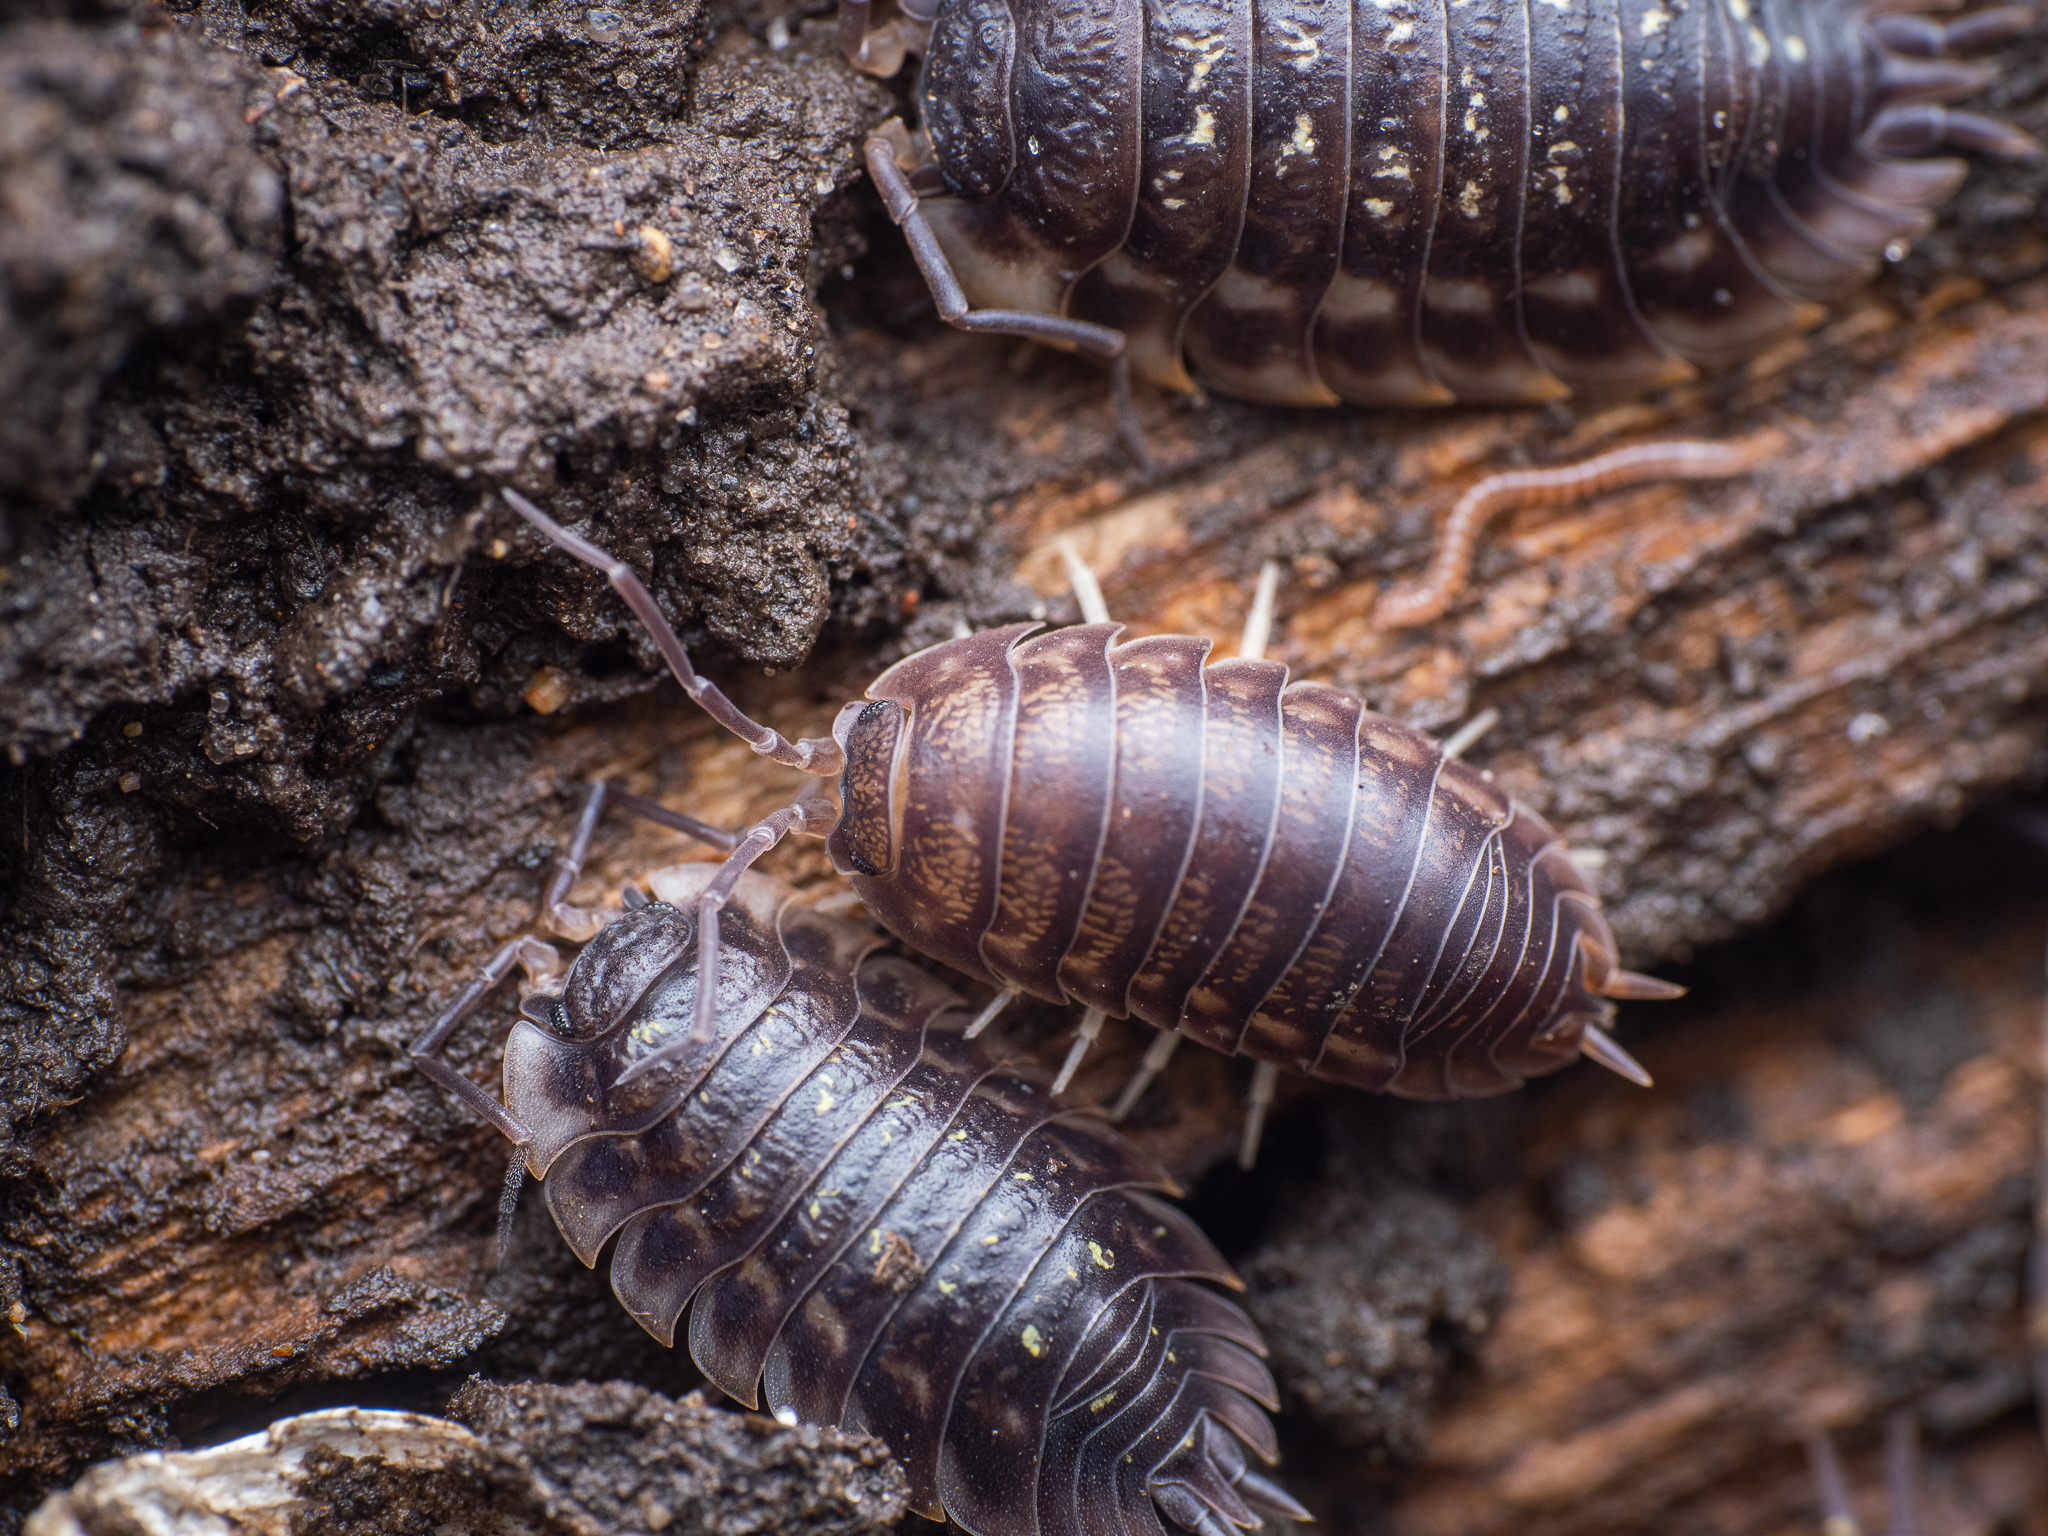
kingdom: Animalia
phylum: Arthropoda
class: Malacostraca
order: Isopoda
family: Cylisticidae
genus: Cylisticus
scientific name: Cylisticus convexus
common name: Curly woodlouse
